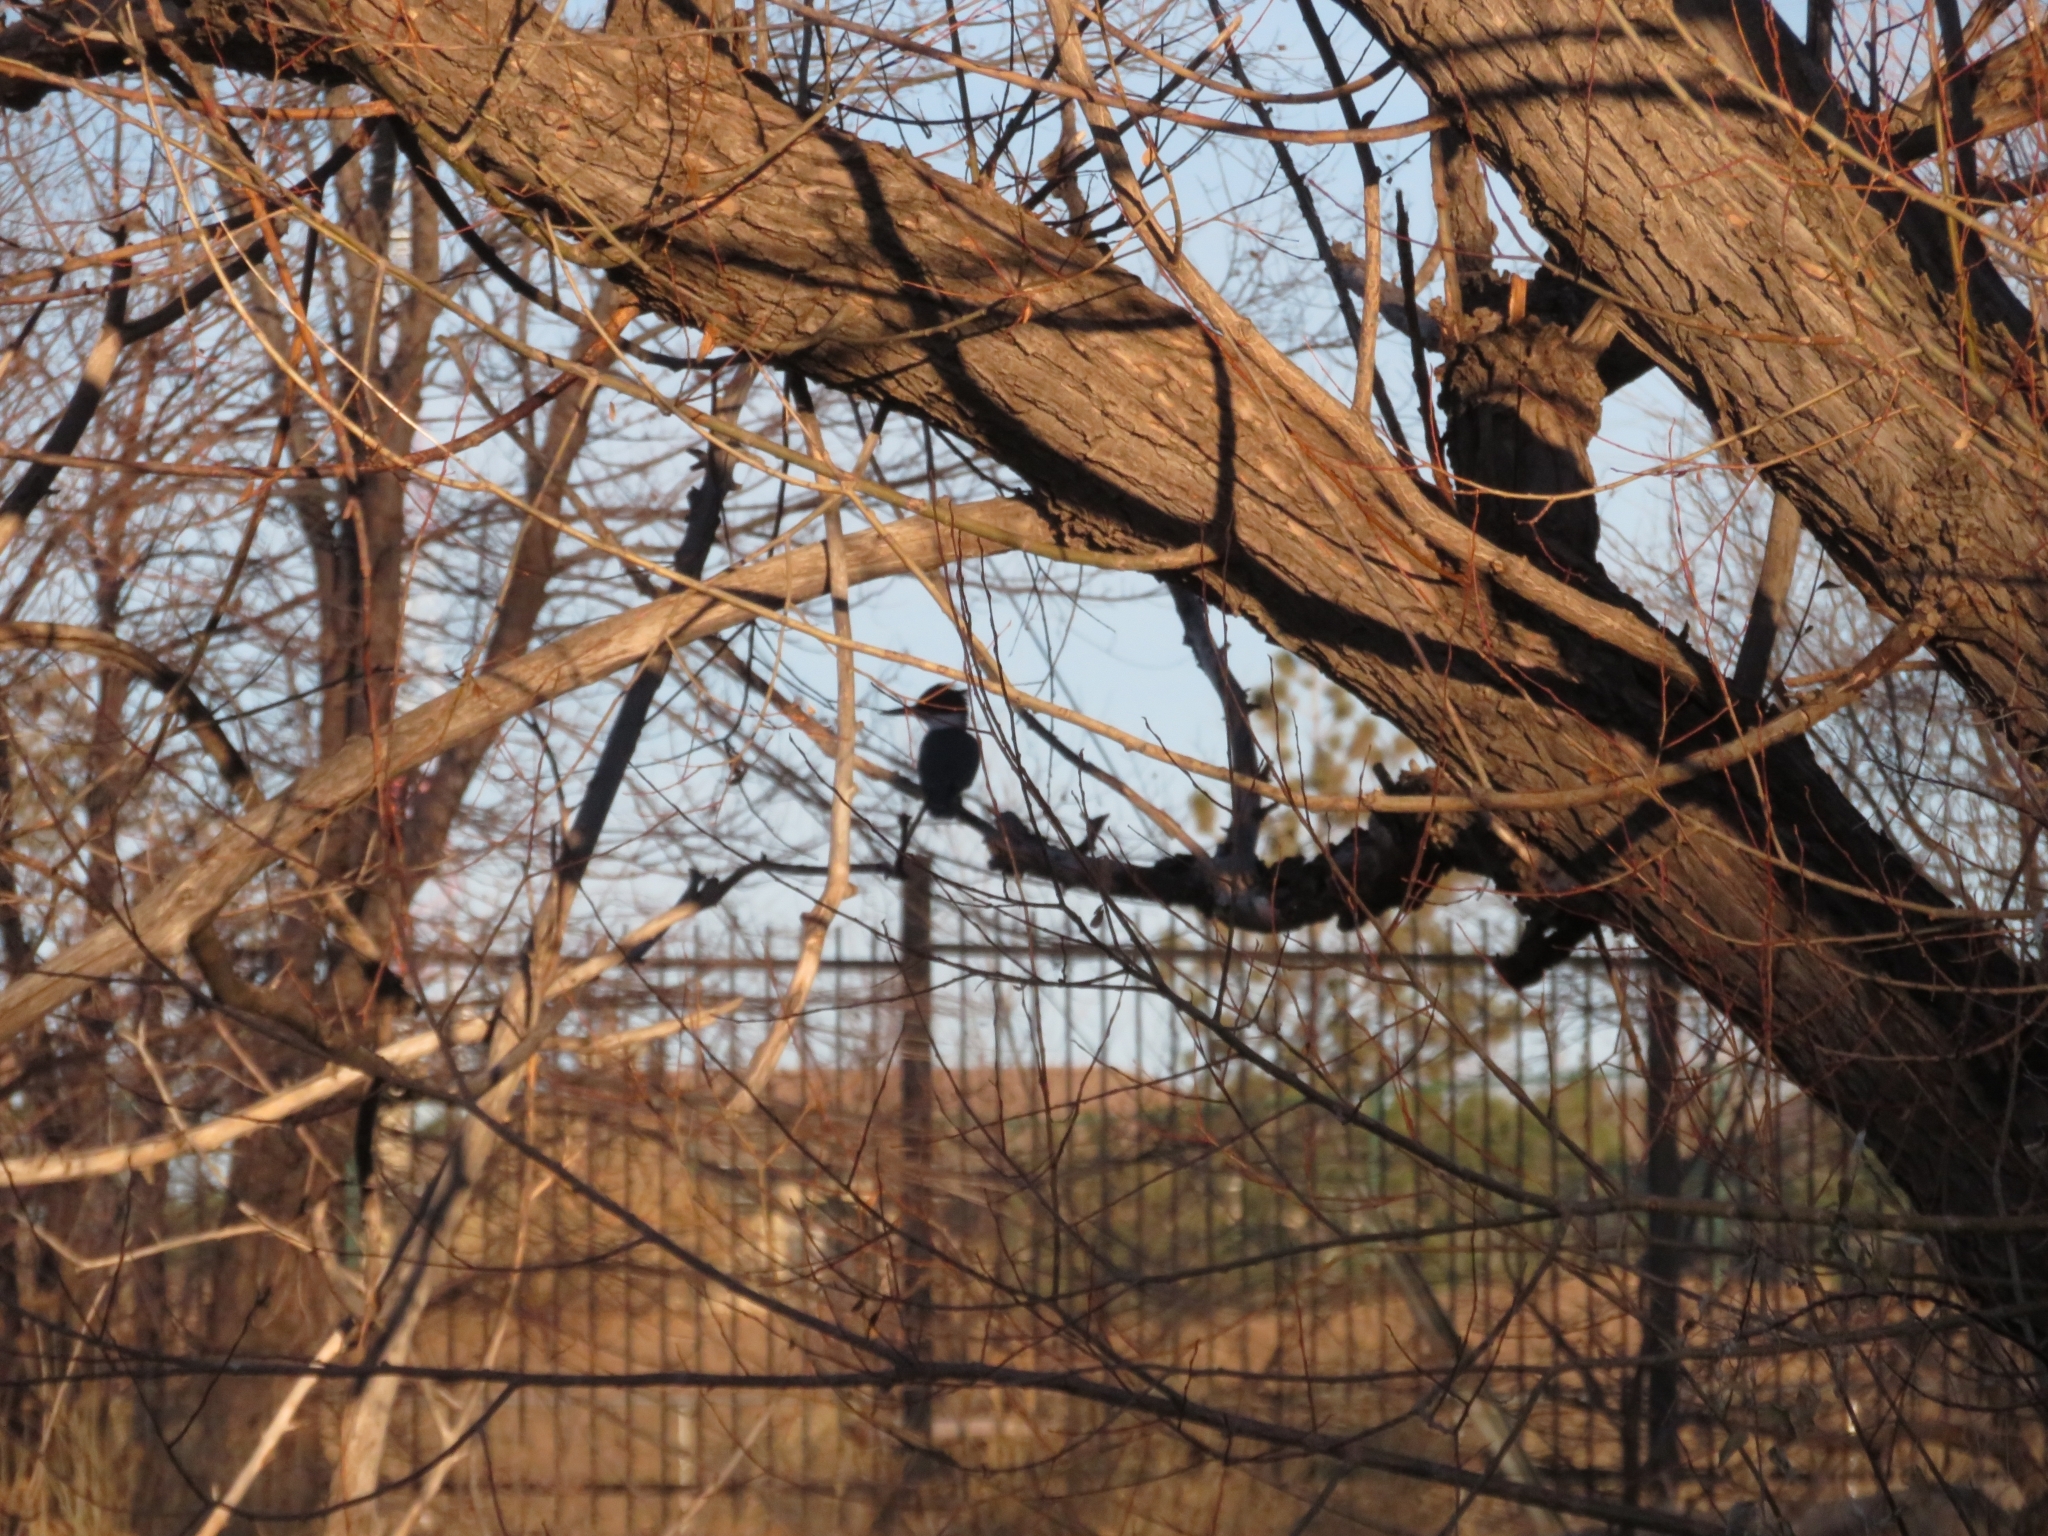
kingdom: Animalia
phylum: Chordata
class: Aves
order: Coraciiformes
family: Alcedinidae
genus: Megaceryle
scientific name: Megaceryle alcyon
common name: Belted kingfisher
